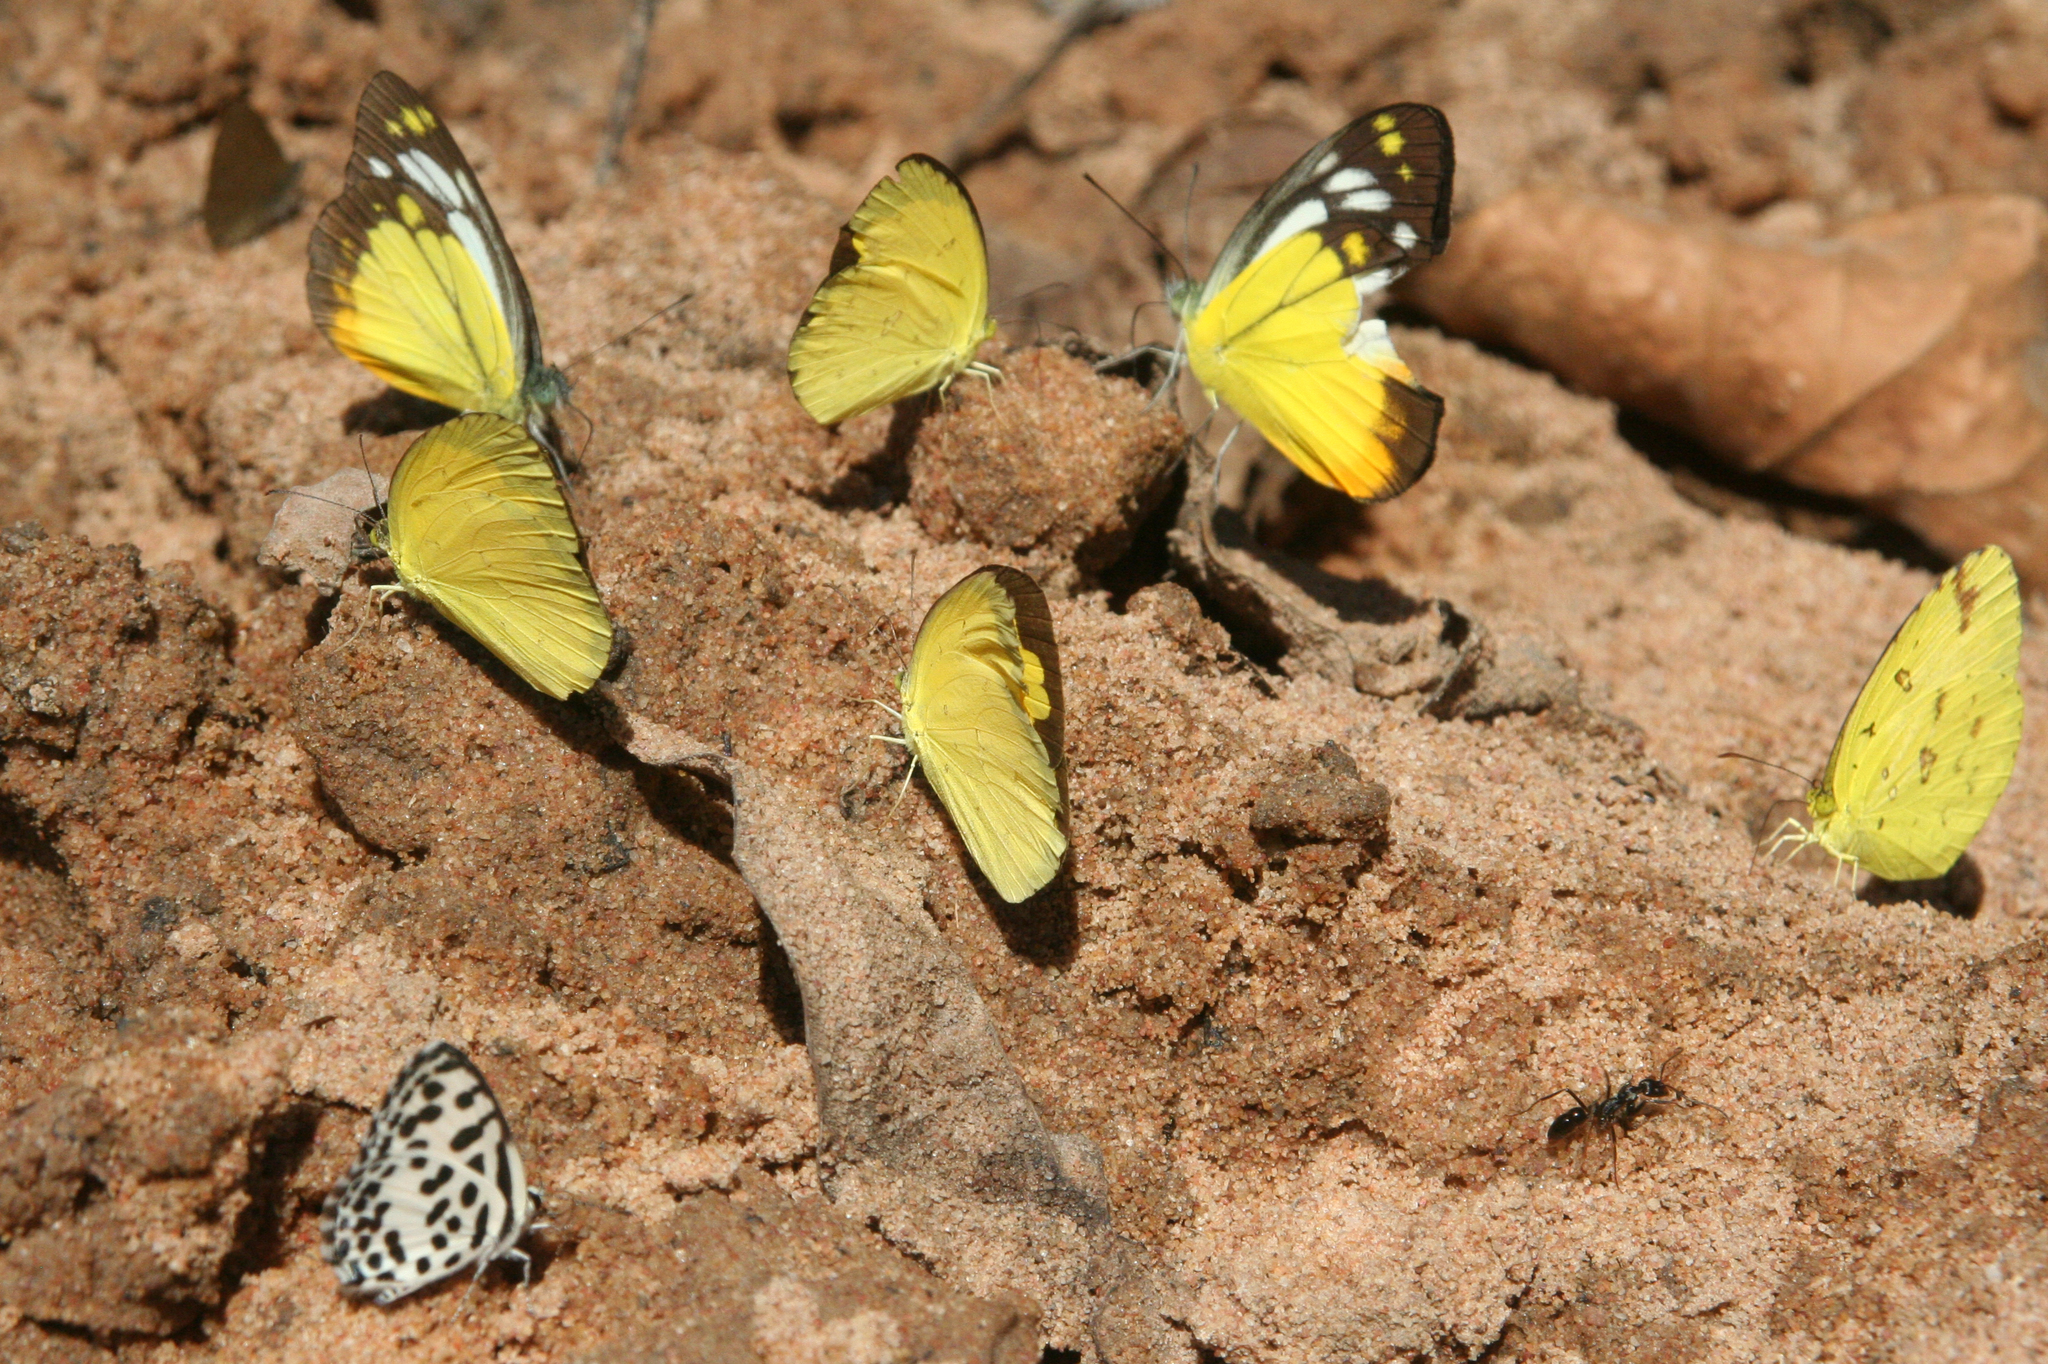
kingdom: Animalia
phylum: Arthropoda
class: Insecta
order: Lepidoptera
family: Lycaenidae
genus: Castalius
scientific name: Castalius rosimon
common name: Common pierrot
